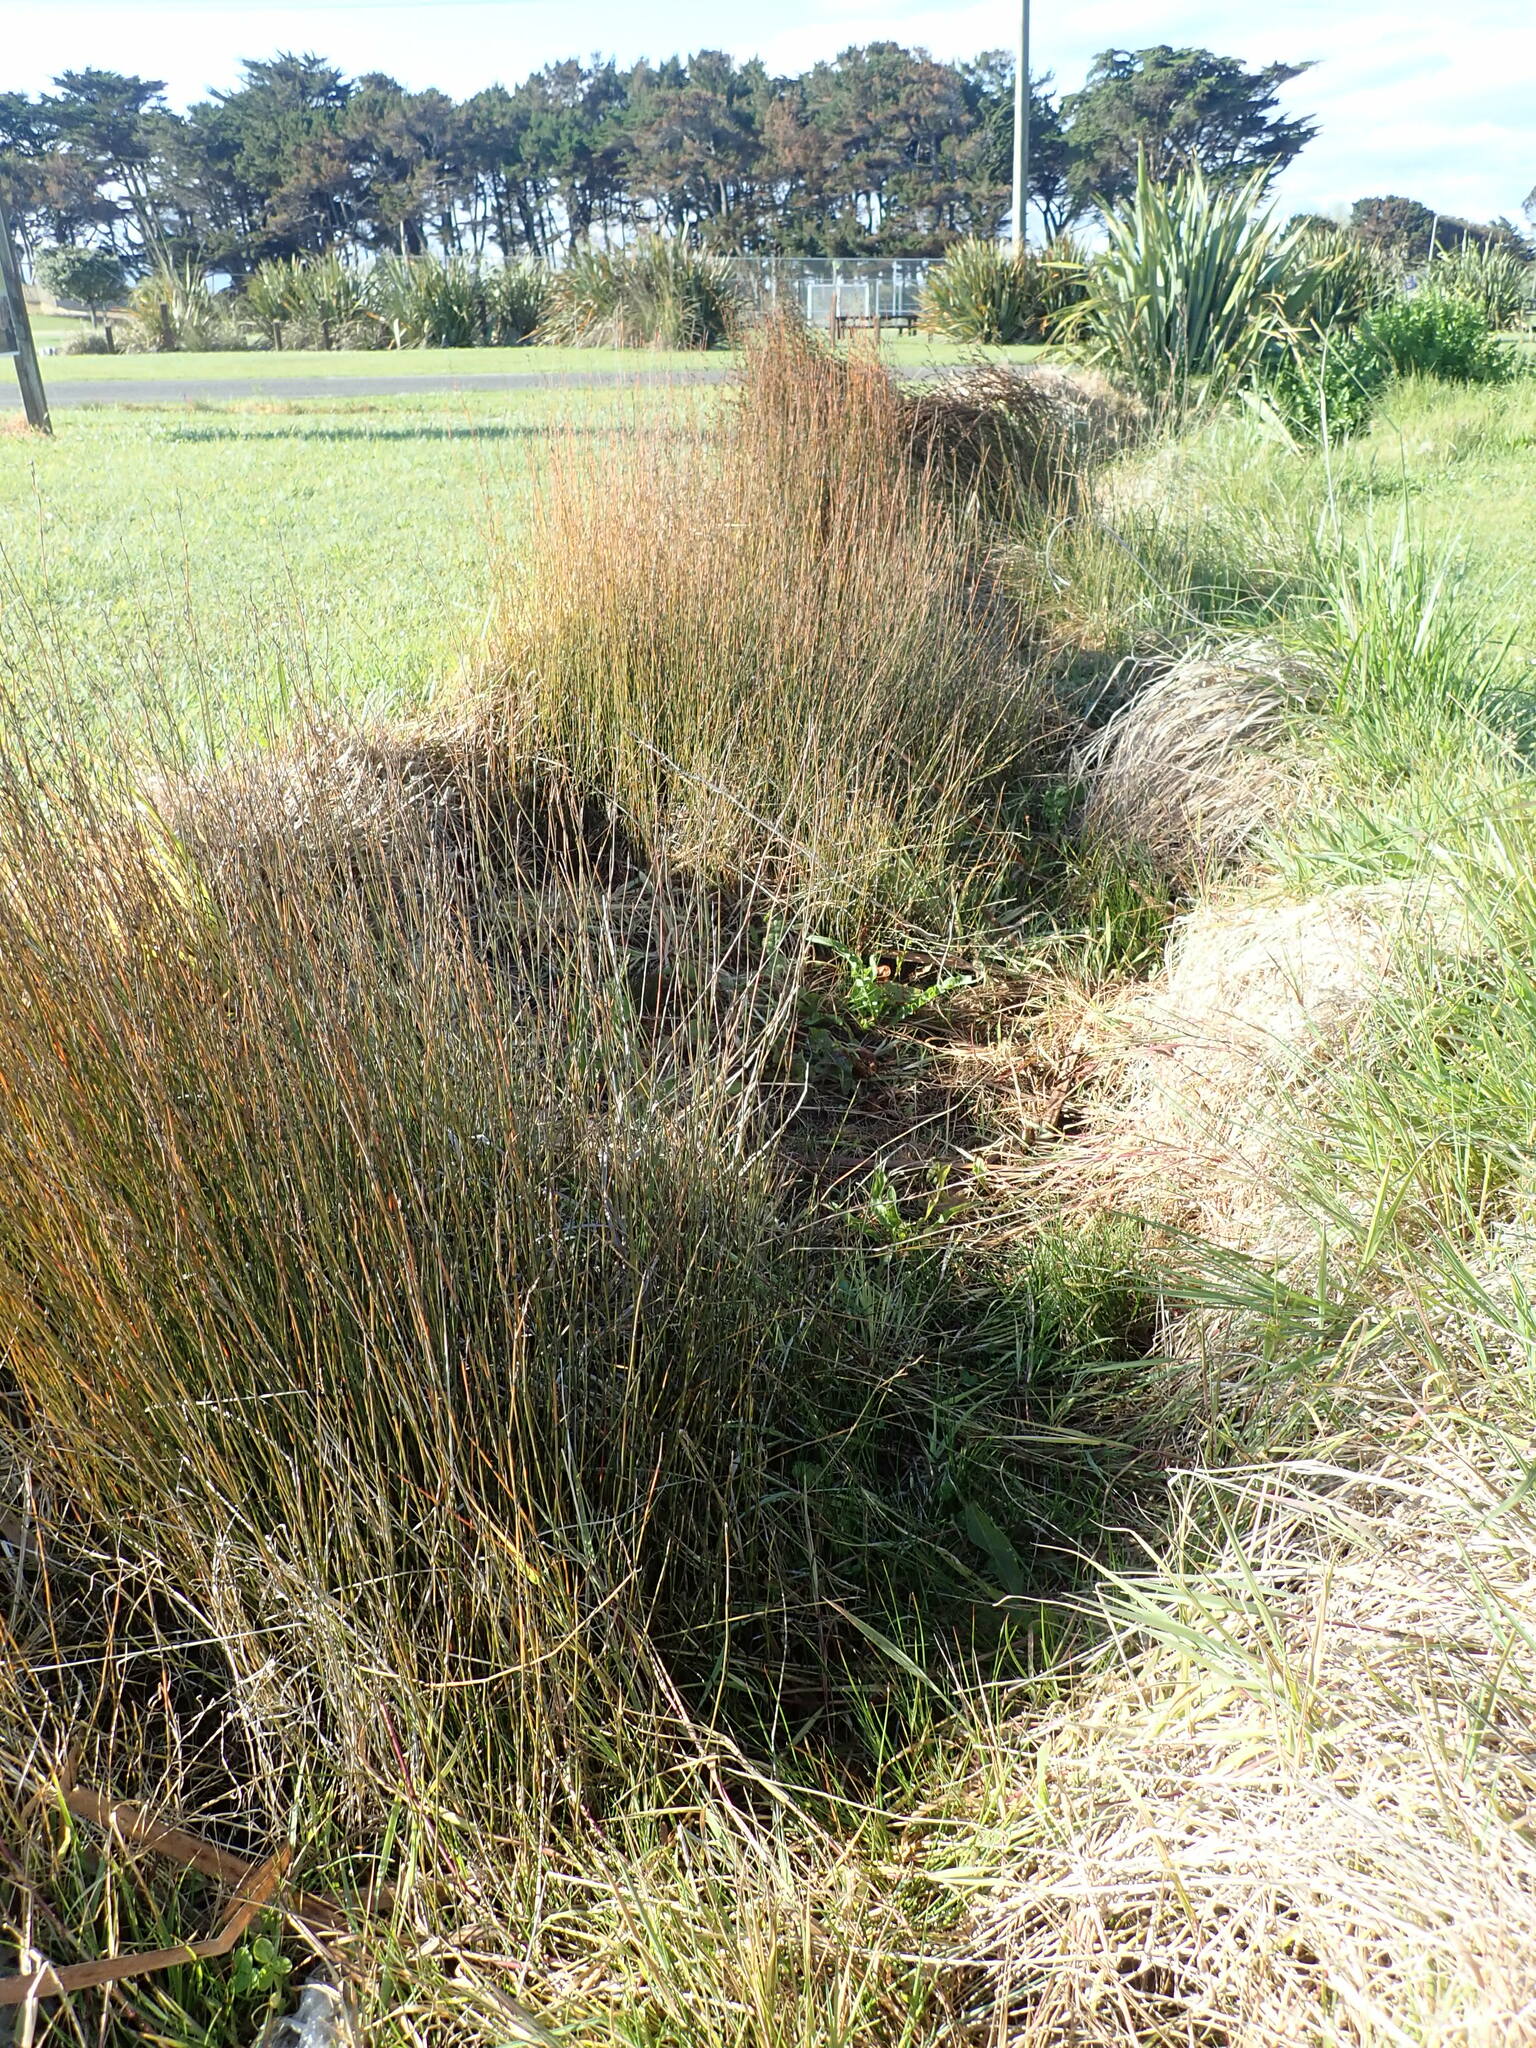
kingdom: Plantae
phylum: Tracheophyta
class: Liliopsida
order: Poales
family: Restionaceae
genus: Apodasmia
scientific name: Apodasmia similis
